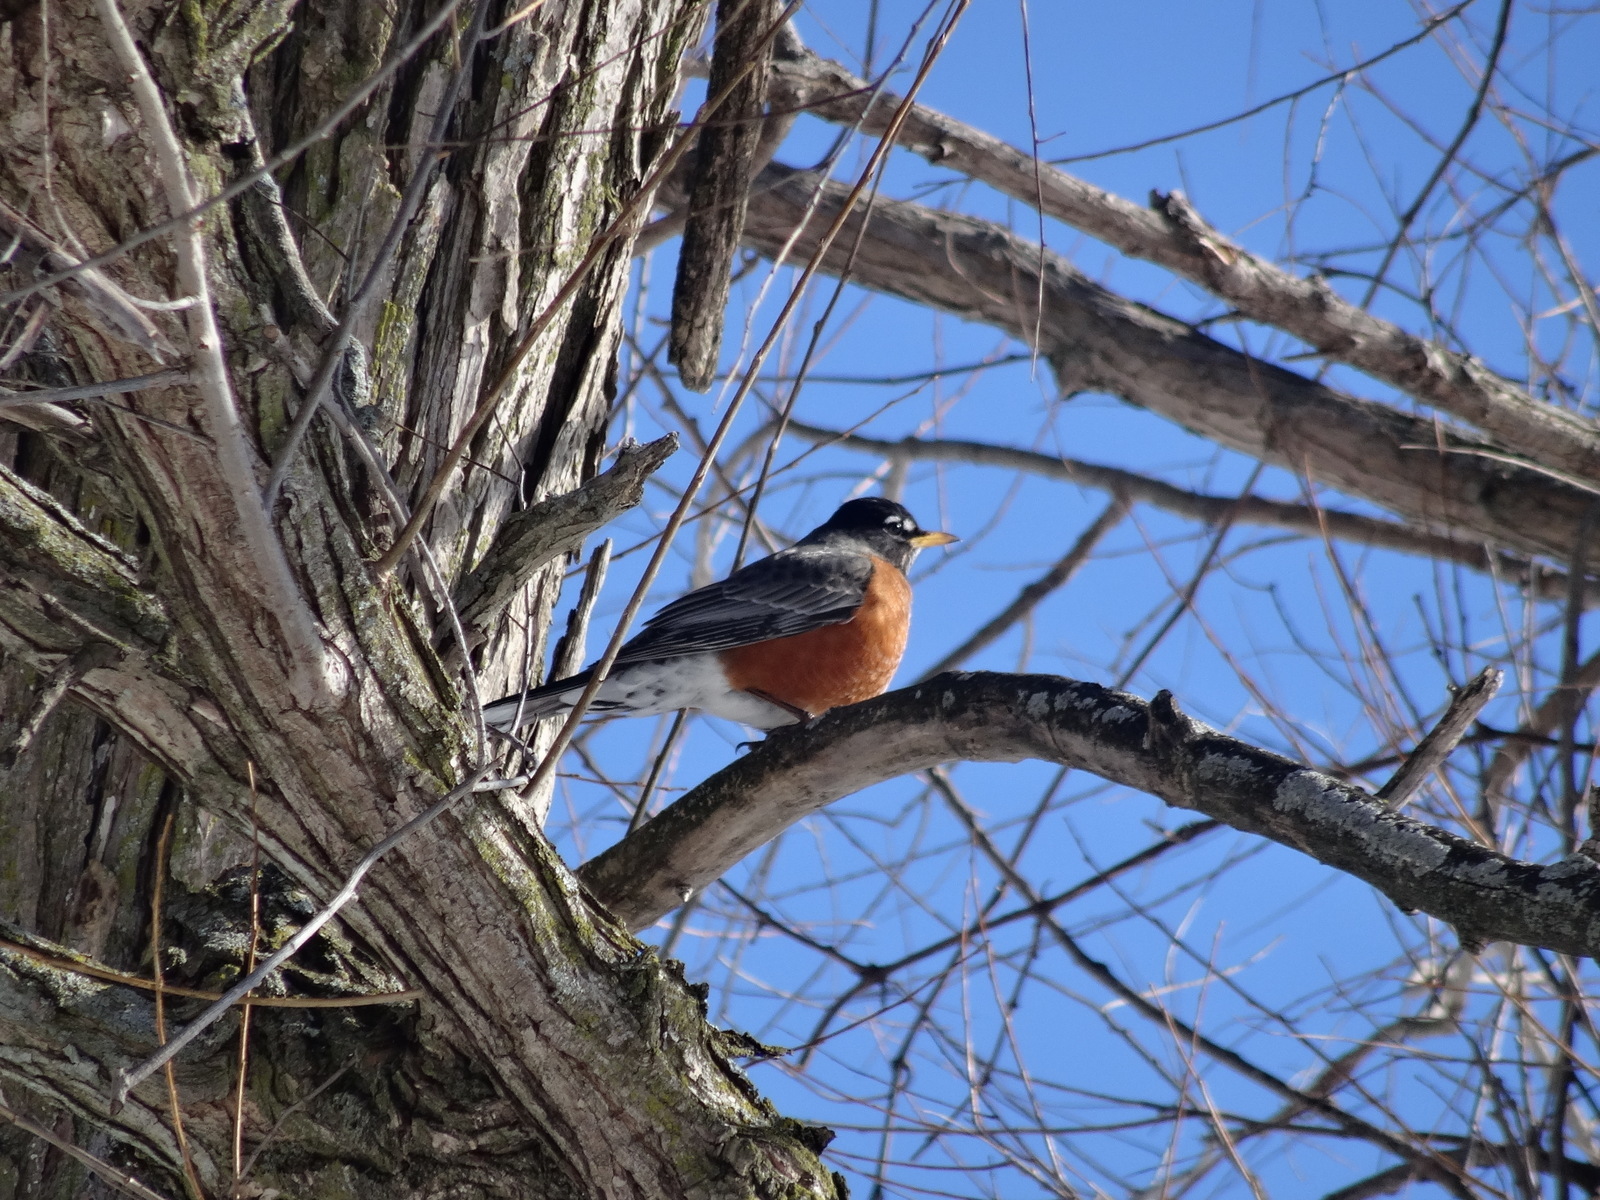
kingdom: Animalia
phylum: Chordata
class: Aves
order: Passeriformes
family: Turdidae
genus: Turdus
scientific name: Turdus migratorius
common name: American robin
